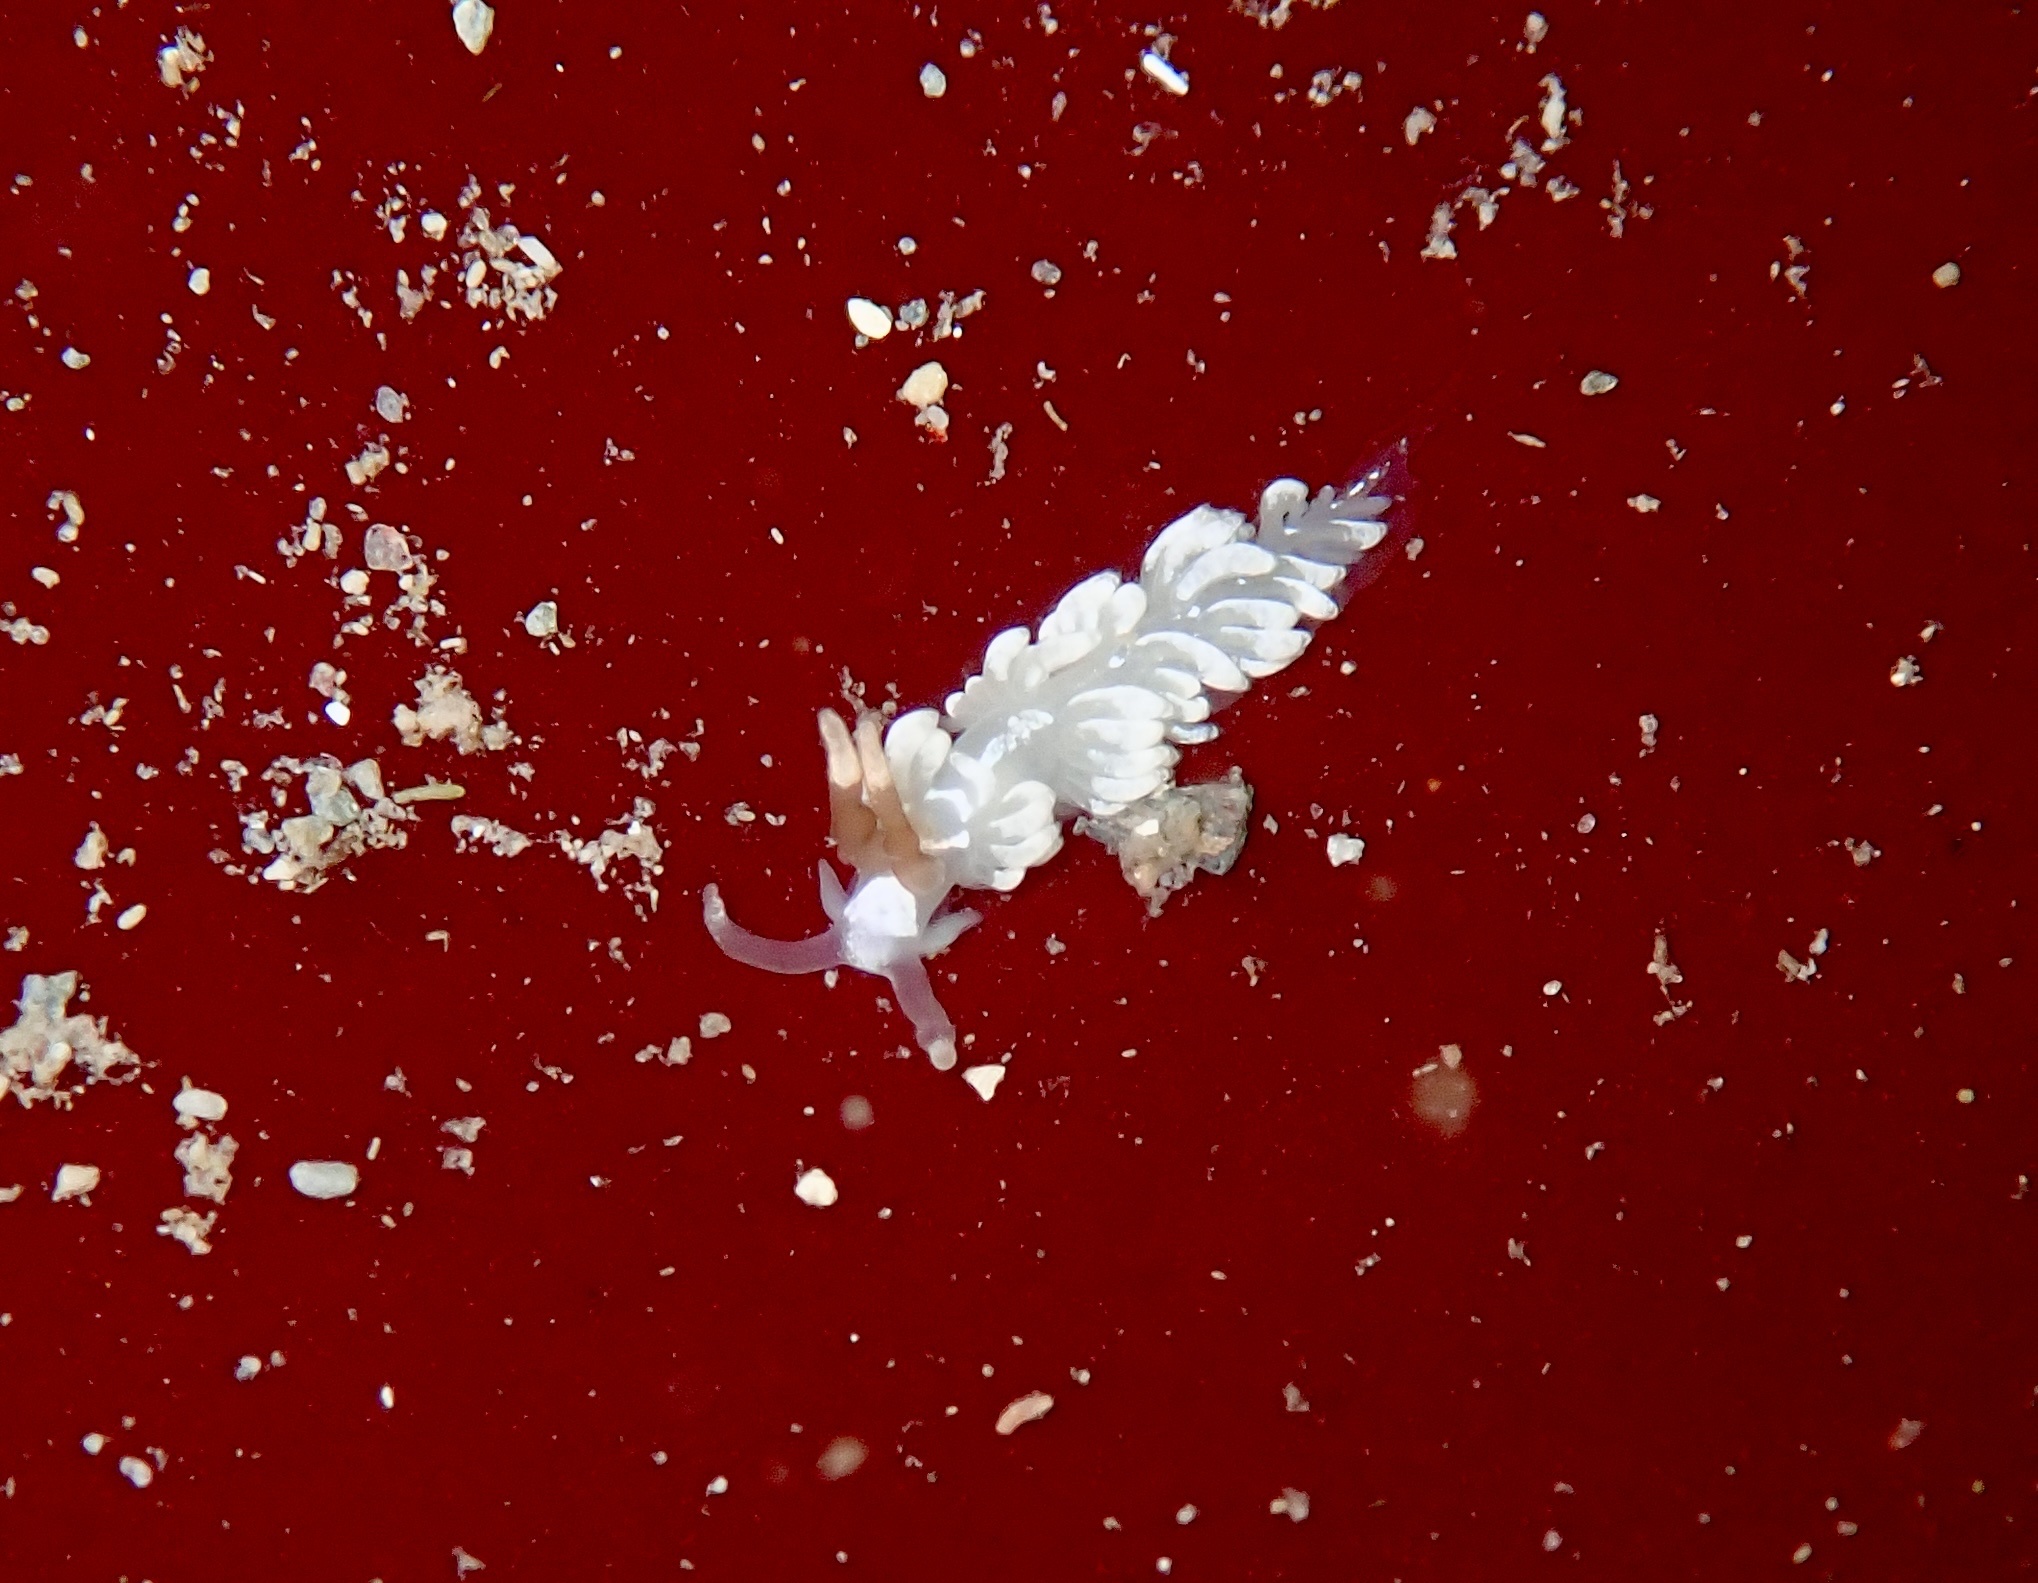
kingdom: Animalia
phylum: Mollusca
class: Gastropoda
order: Nudibranchia
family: Facelinidae
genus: Favorinus
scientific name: Favorinus branchialis
